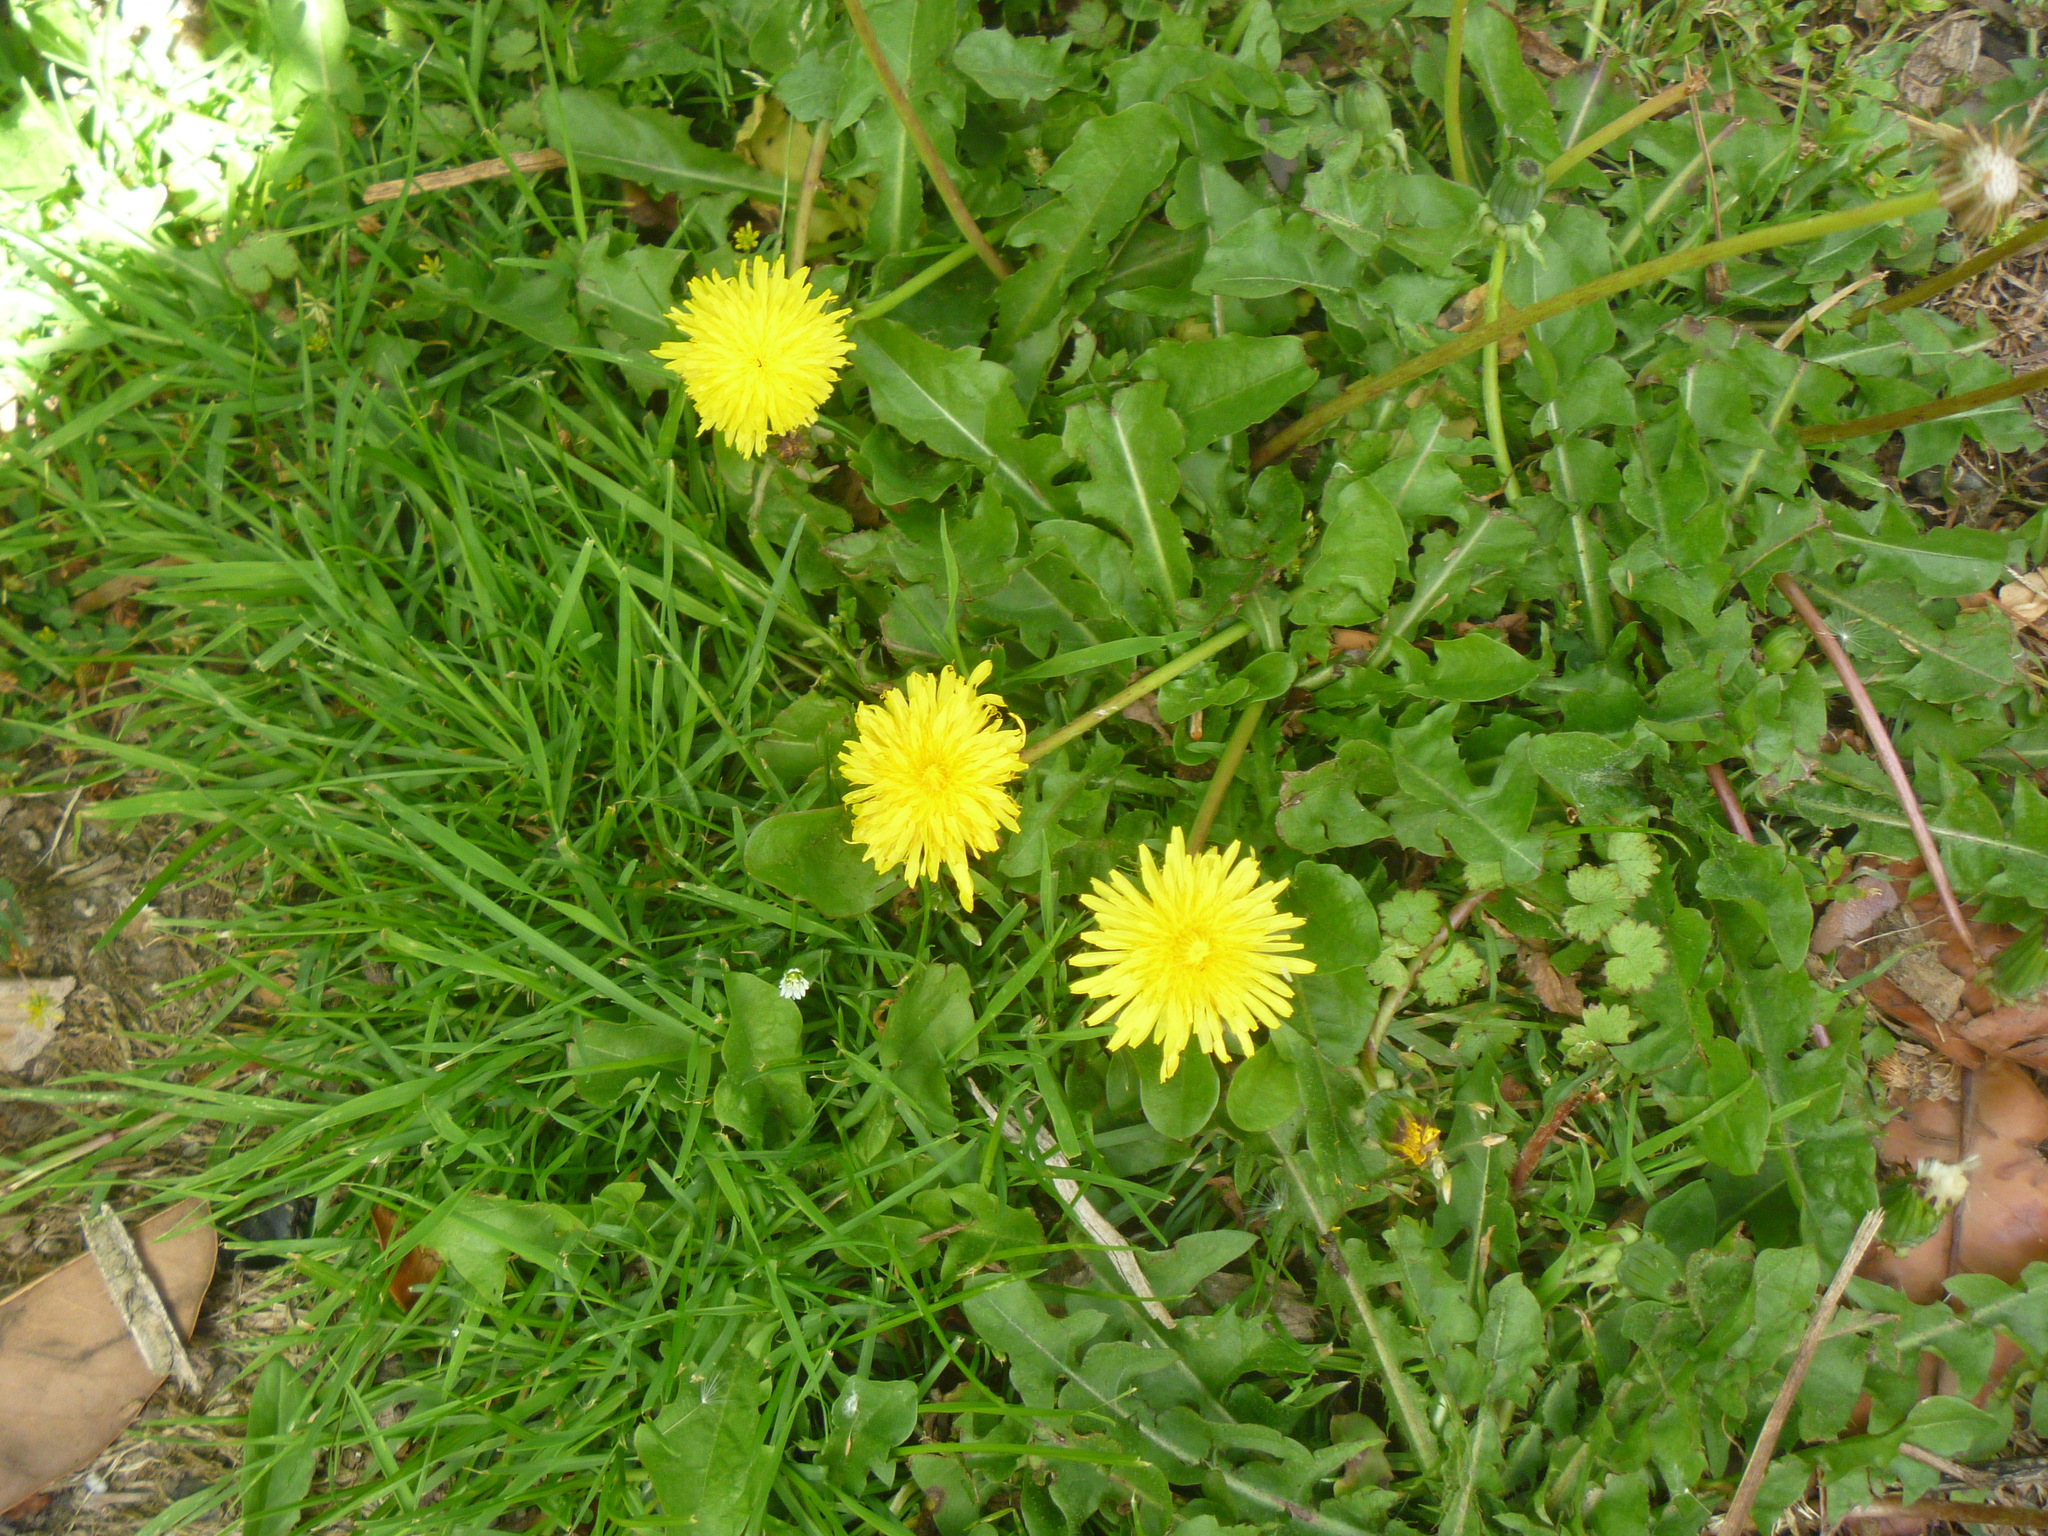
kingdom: Plantae
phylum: Tracheophyta
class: Magnoliopsida
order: Asterales
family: Asteraceae
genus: Taraxacum
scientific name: Taraxacum officinale
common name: Common dandelion
